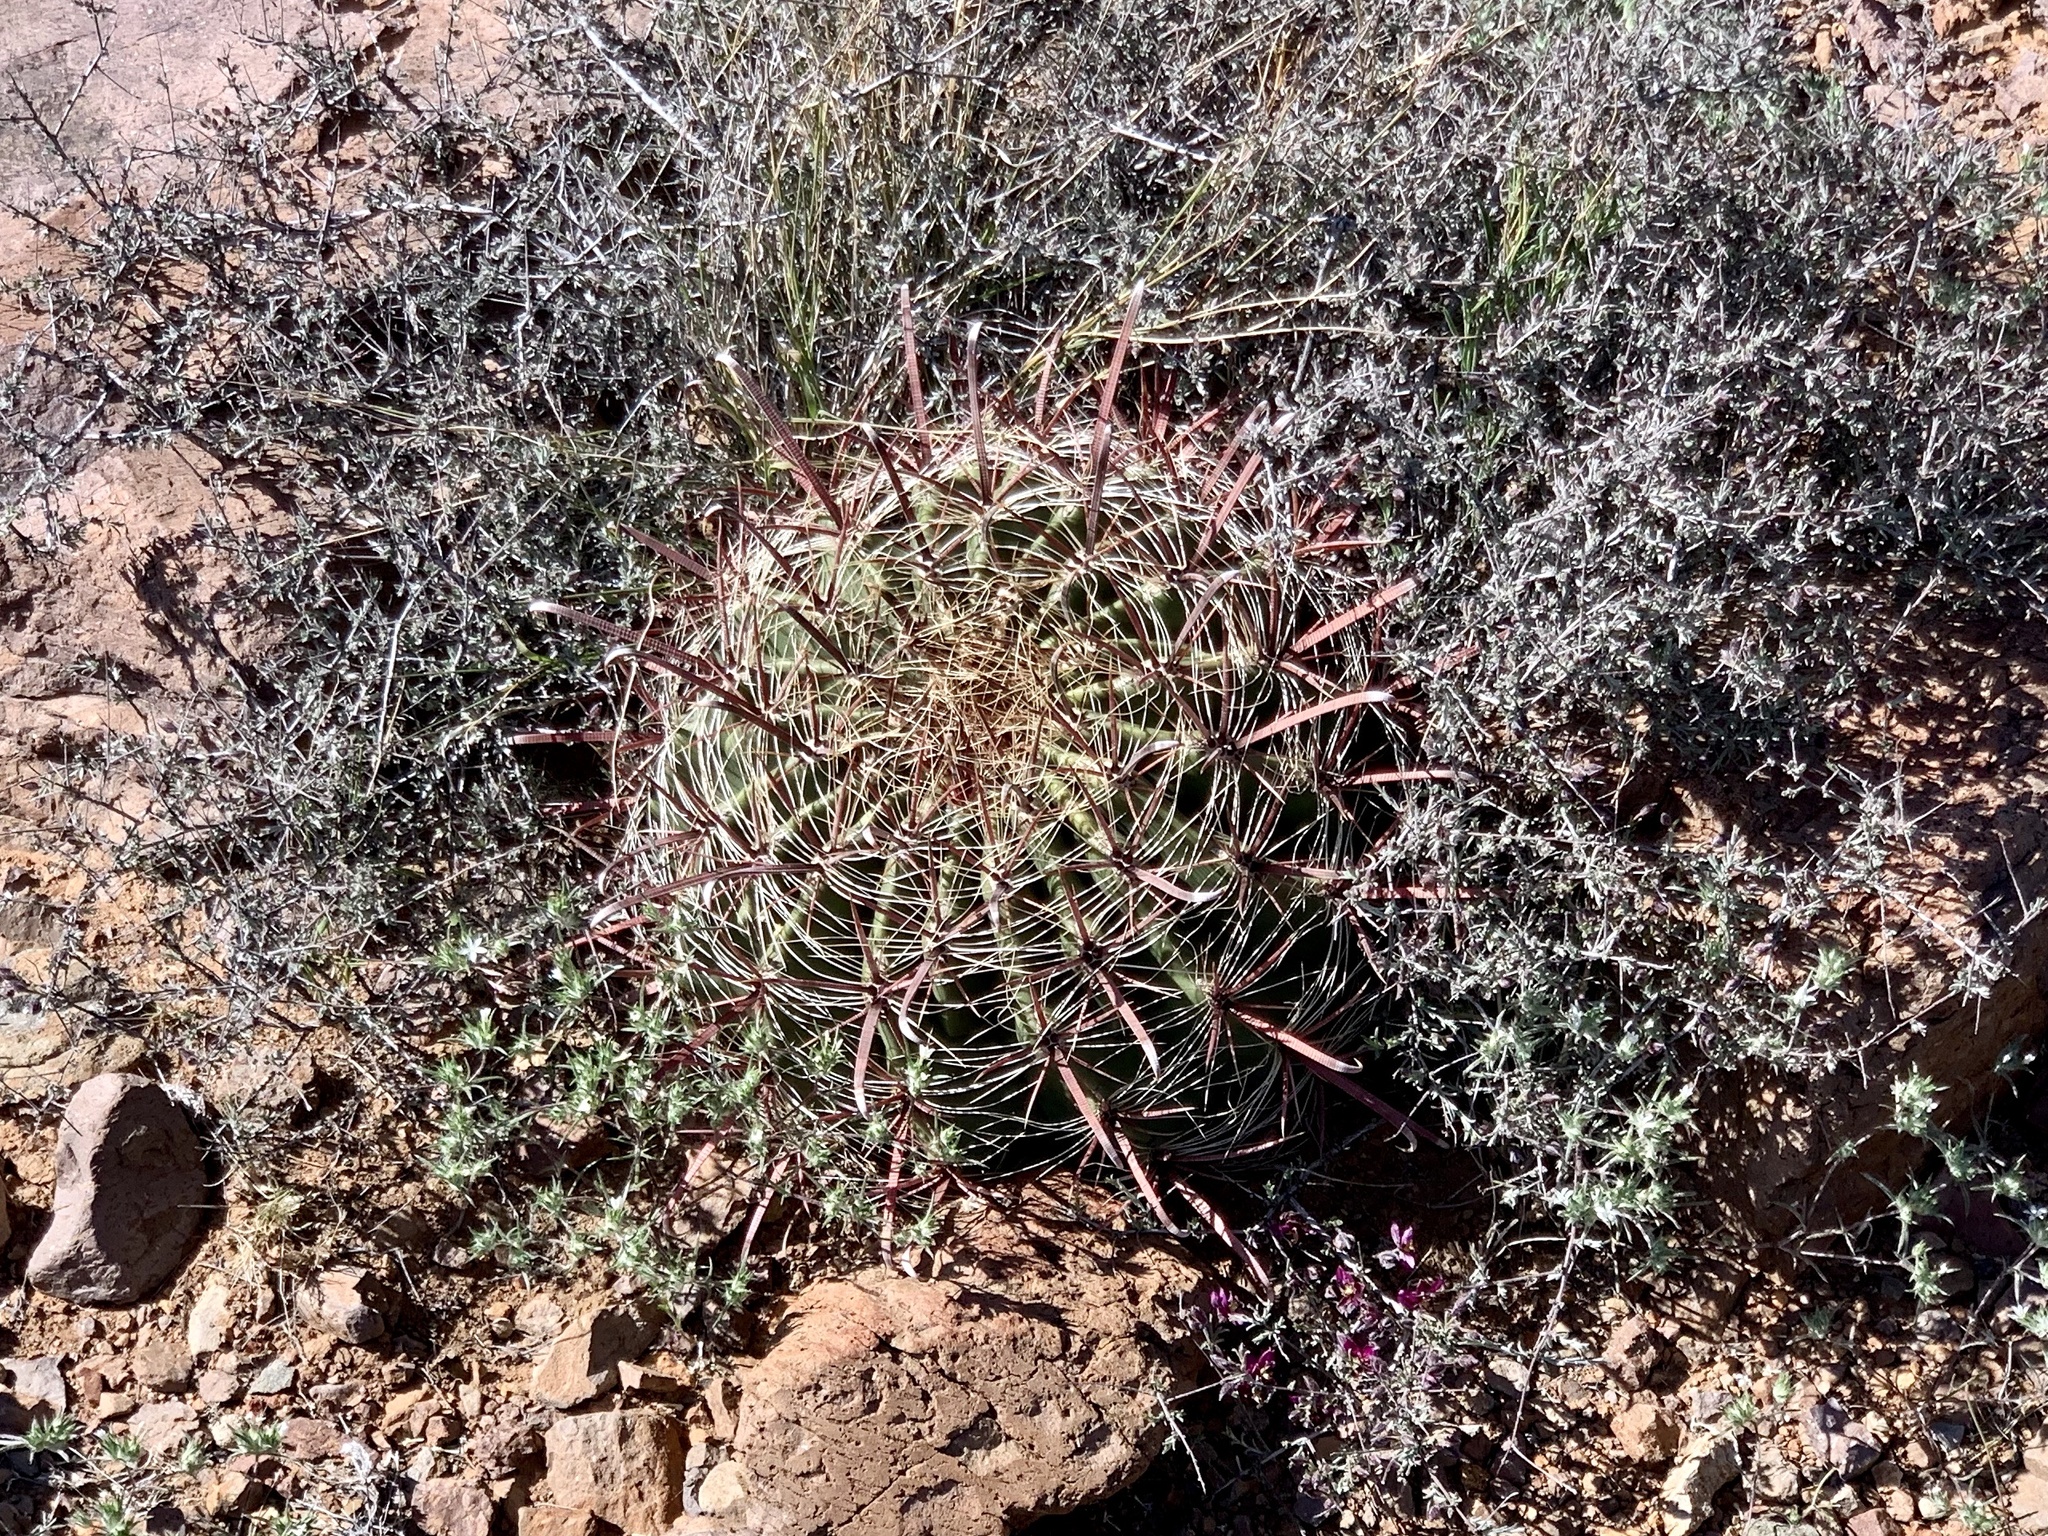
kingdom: Plantae
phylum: Tracheophyta
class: Magnoliopsida
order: Caryophyllales
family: Cactaceae
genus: Ferocactus
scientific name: Ferocactus wislizeni
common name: Candy barrel cactus
